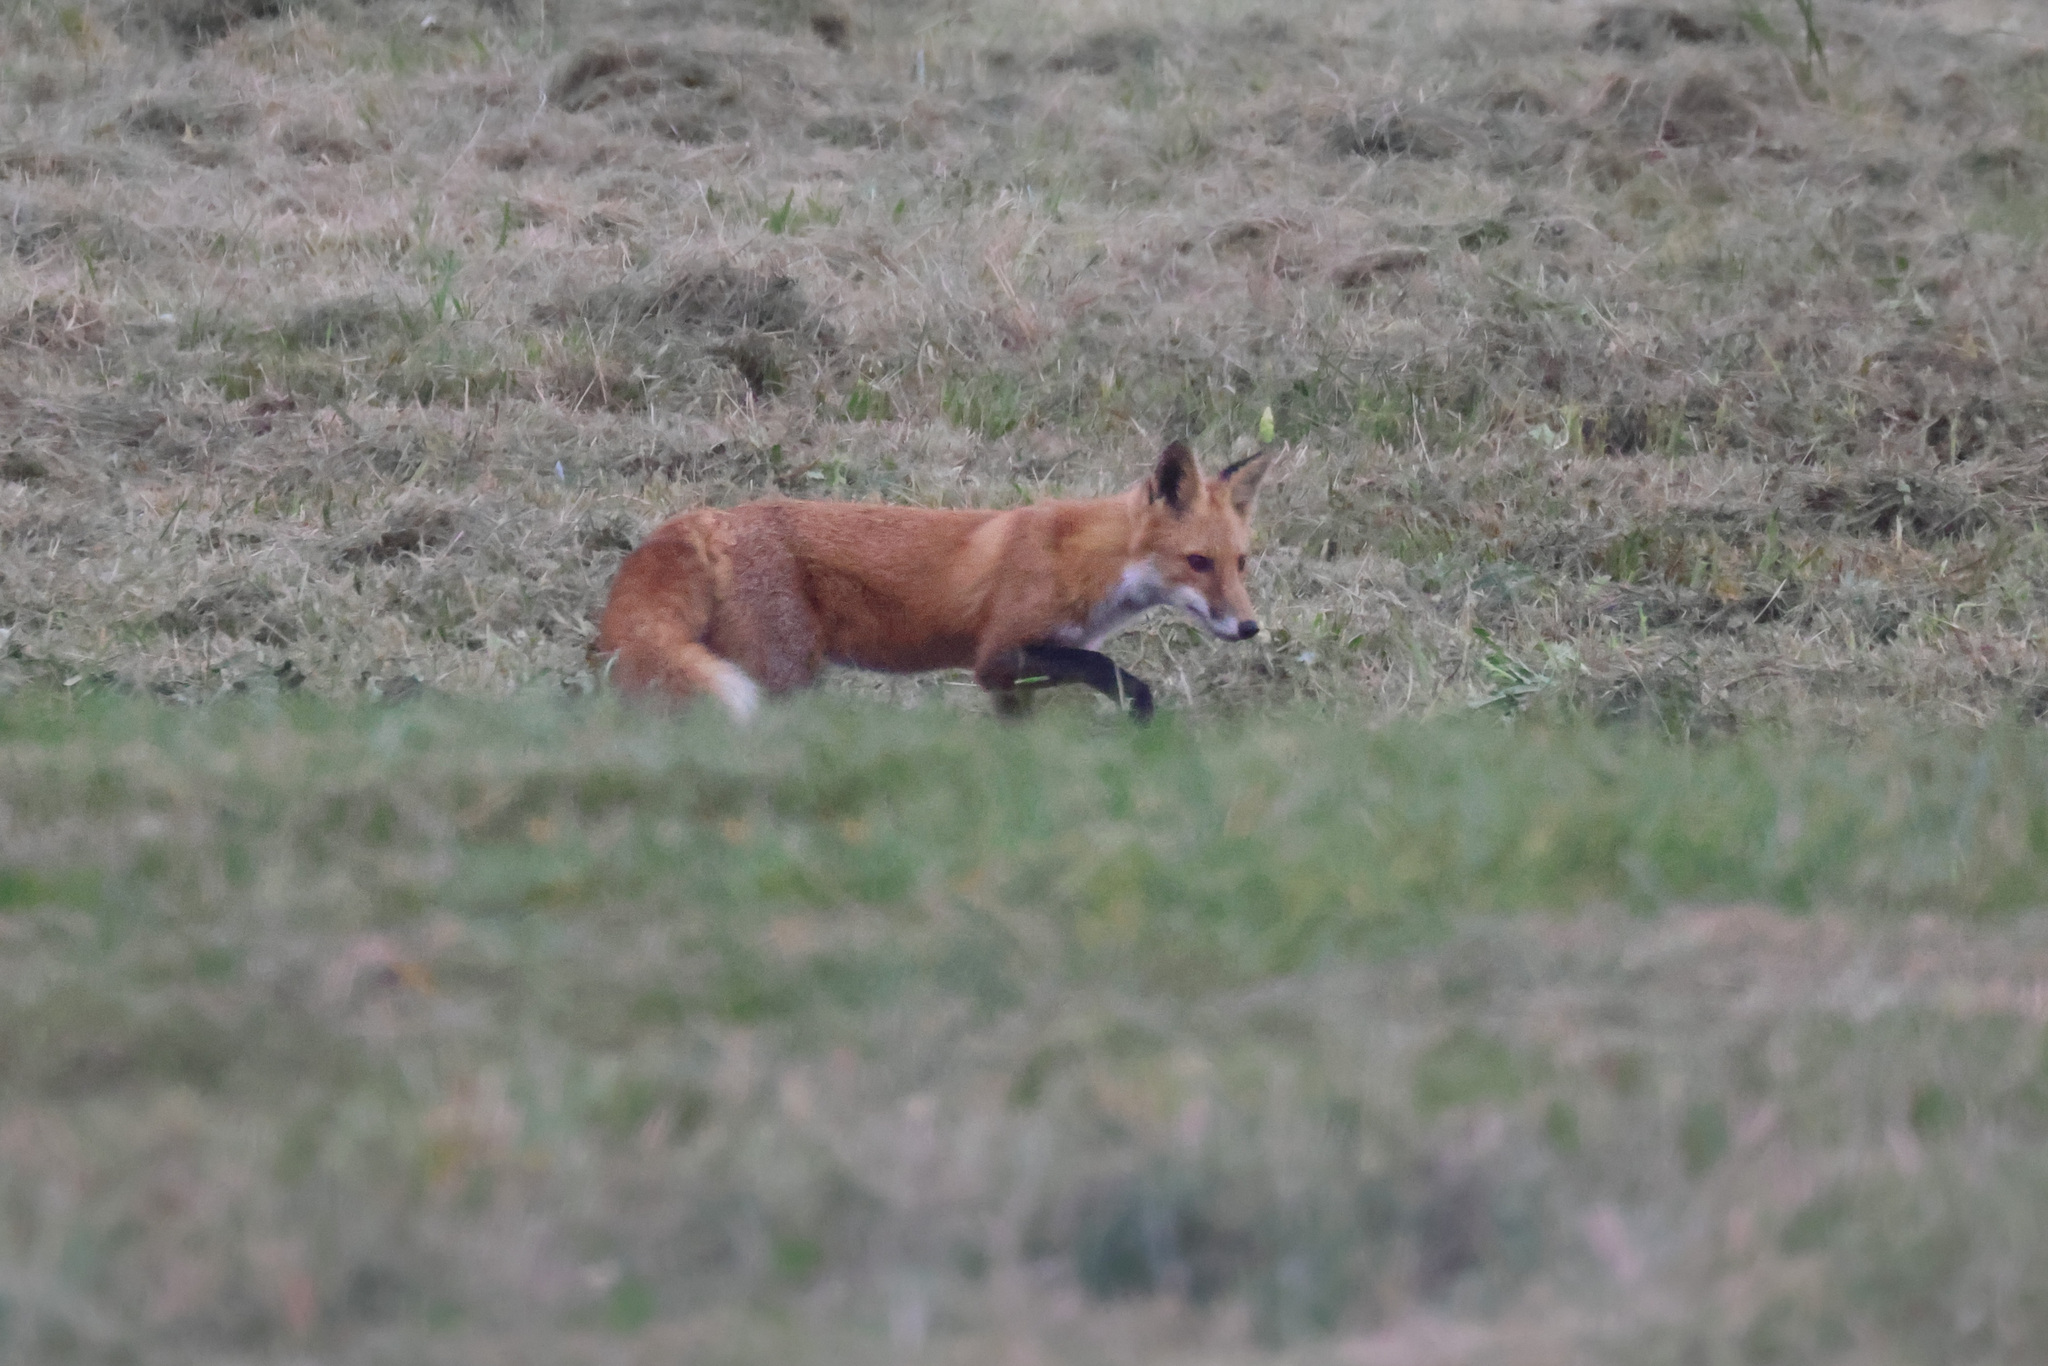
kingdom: Animalia
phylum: Chordata
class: Mammalia
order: Carnivora
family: Canidae
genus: Vulpes
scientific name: Vulpes vulpes
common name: Red fox
